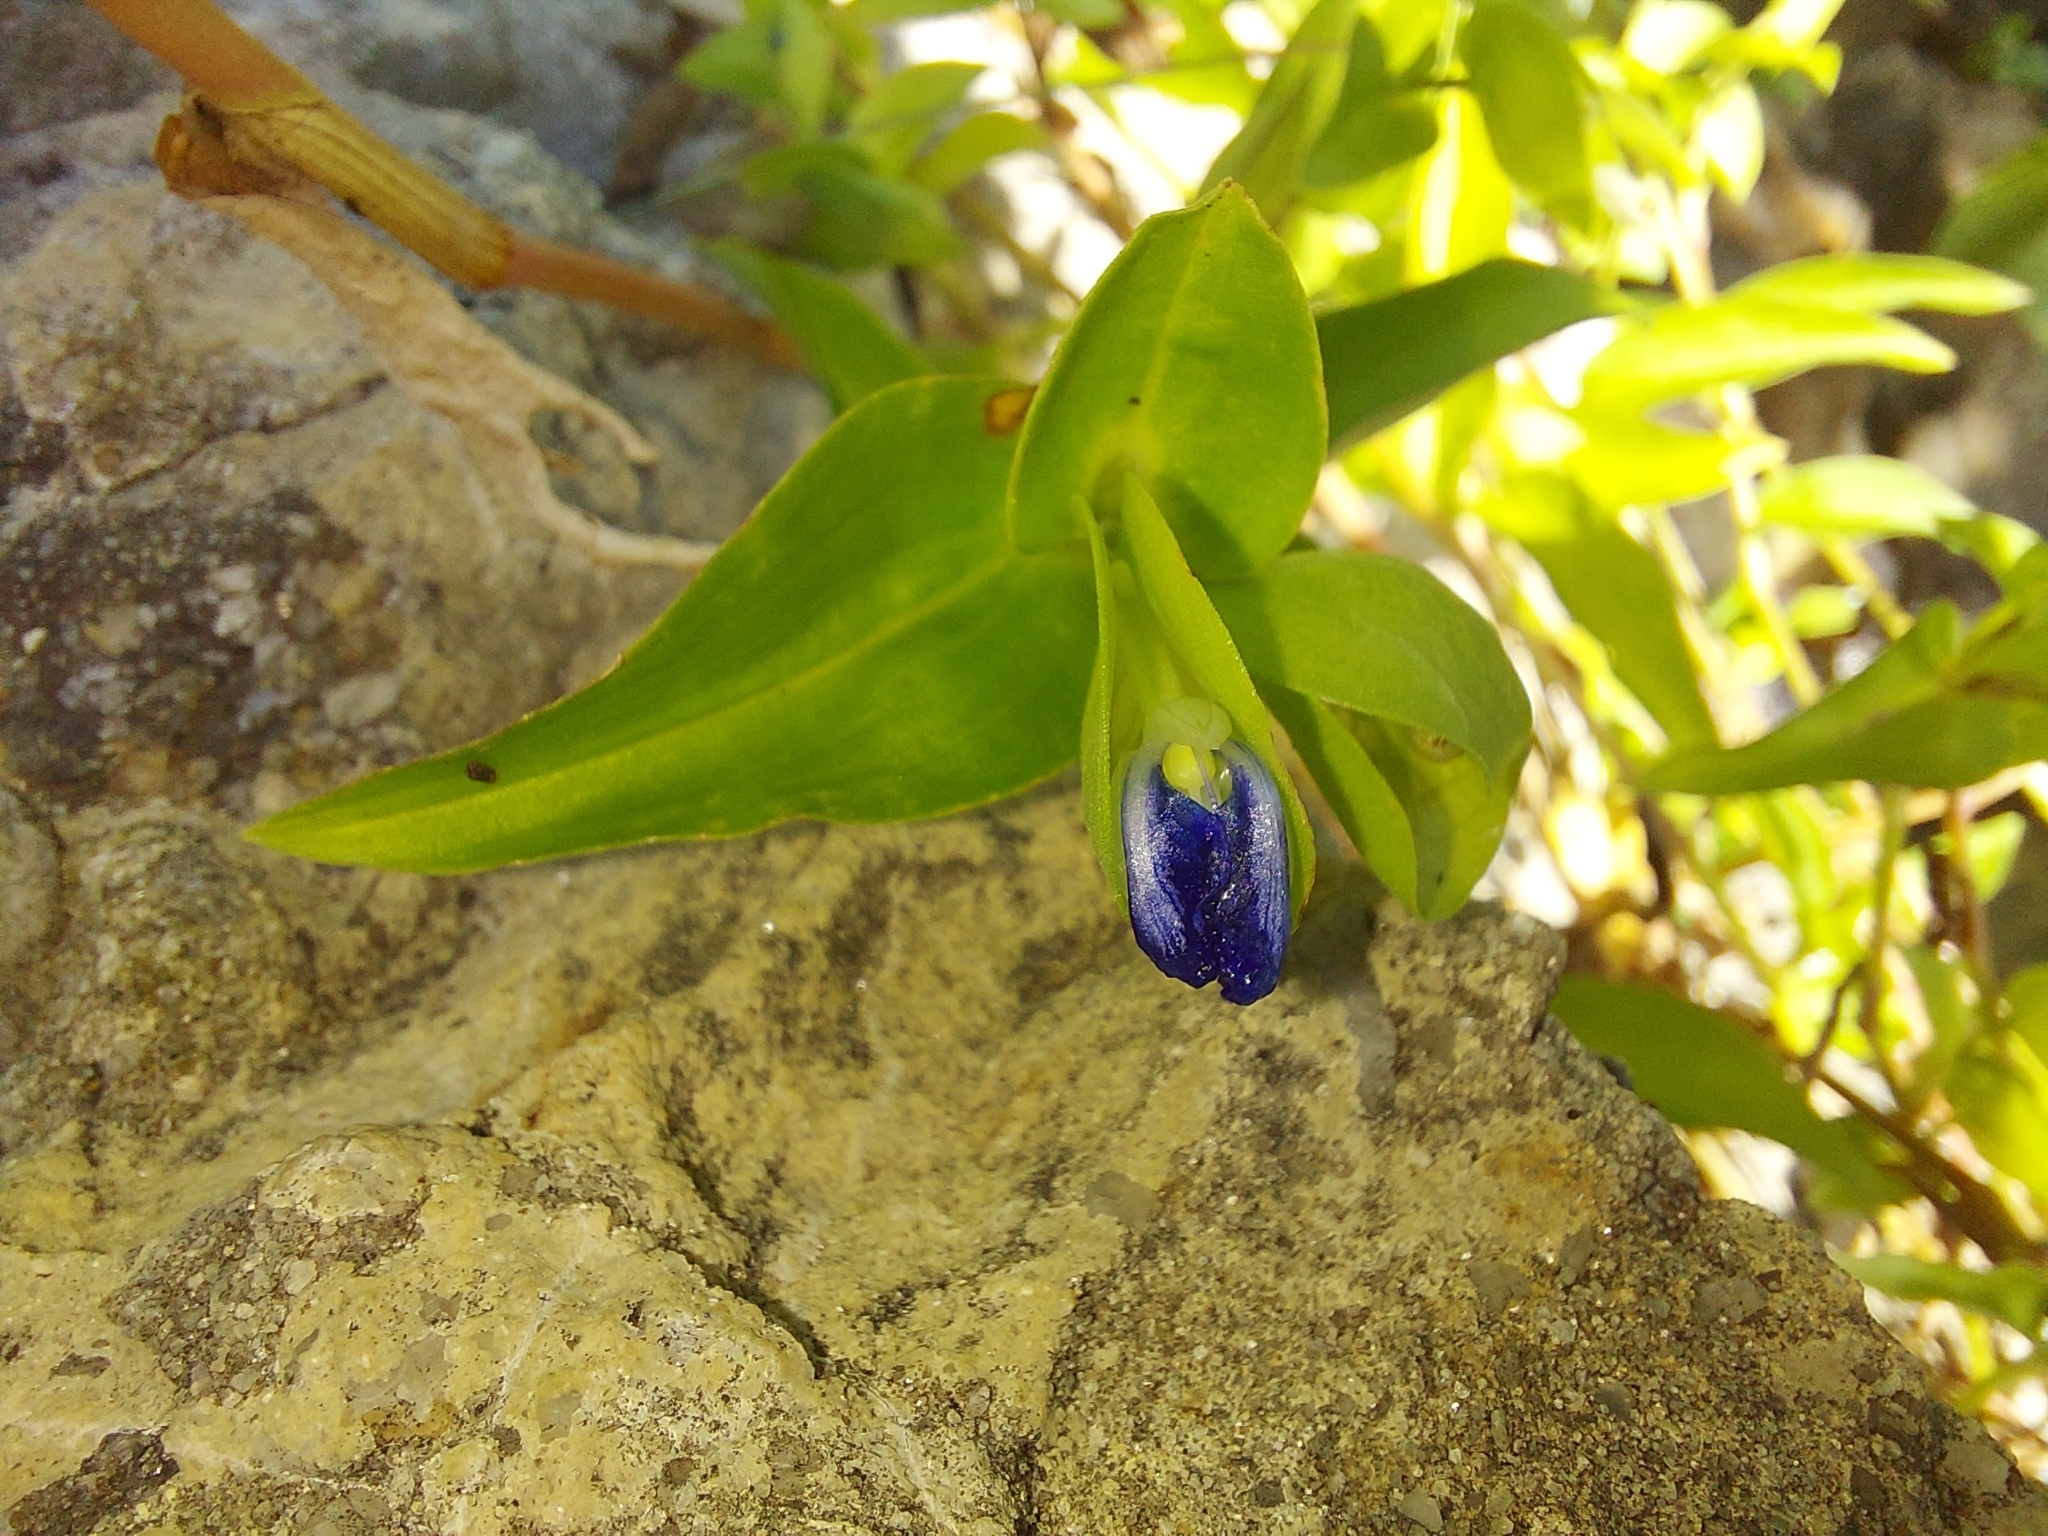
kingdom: Plantae
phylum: Tracheophyta
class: Liliopsida
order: Commelinales
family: Commelinaceae
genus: Commelina
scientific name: Commelina communis
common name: Asiatic dayflower
